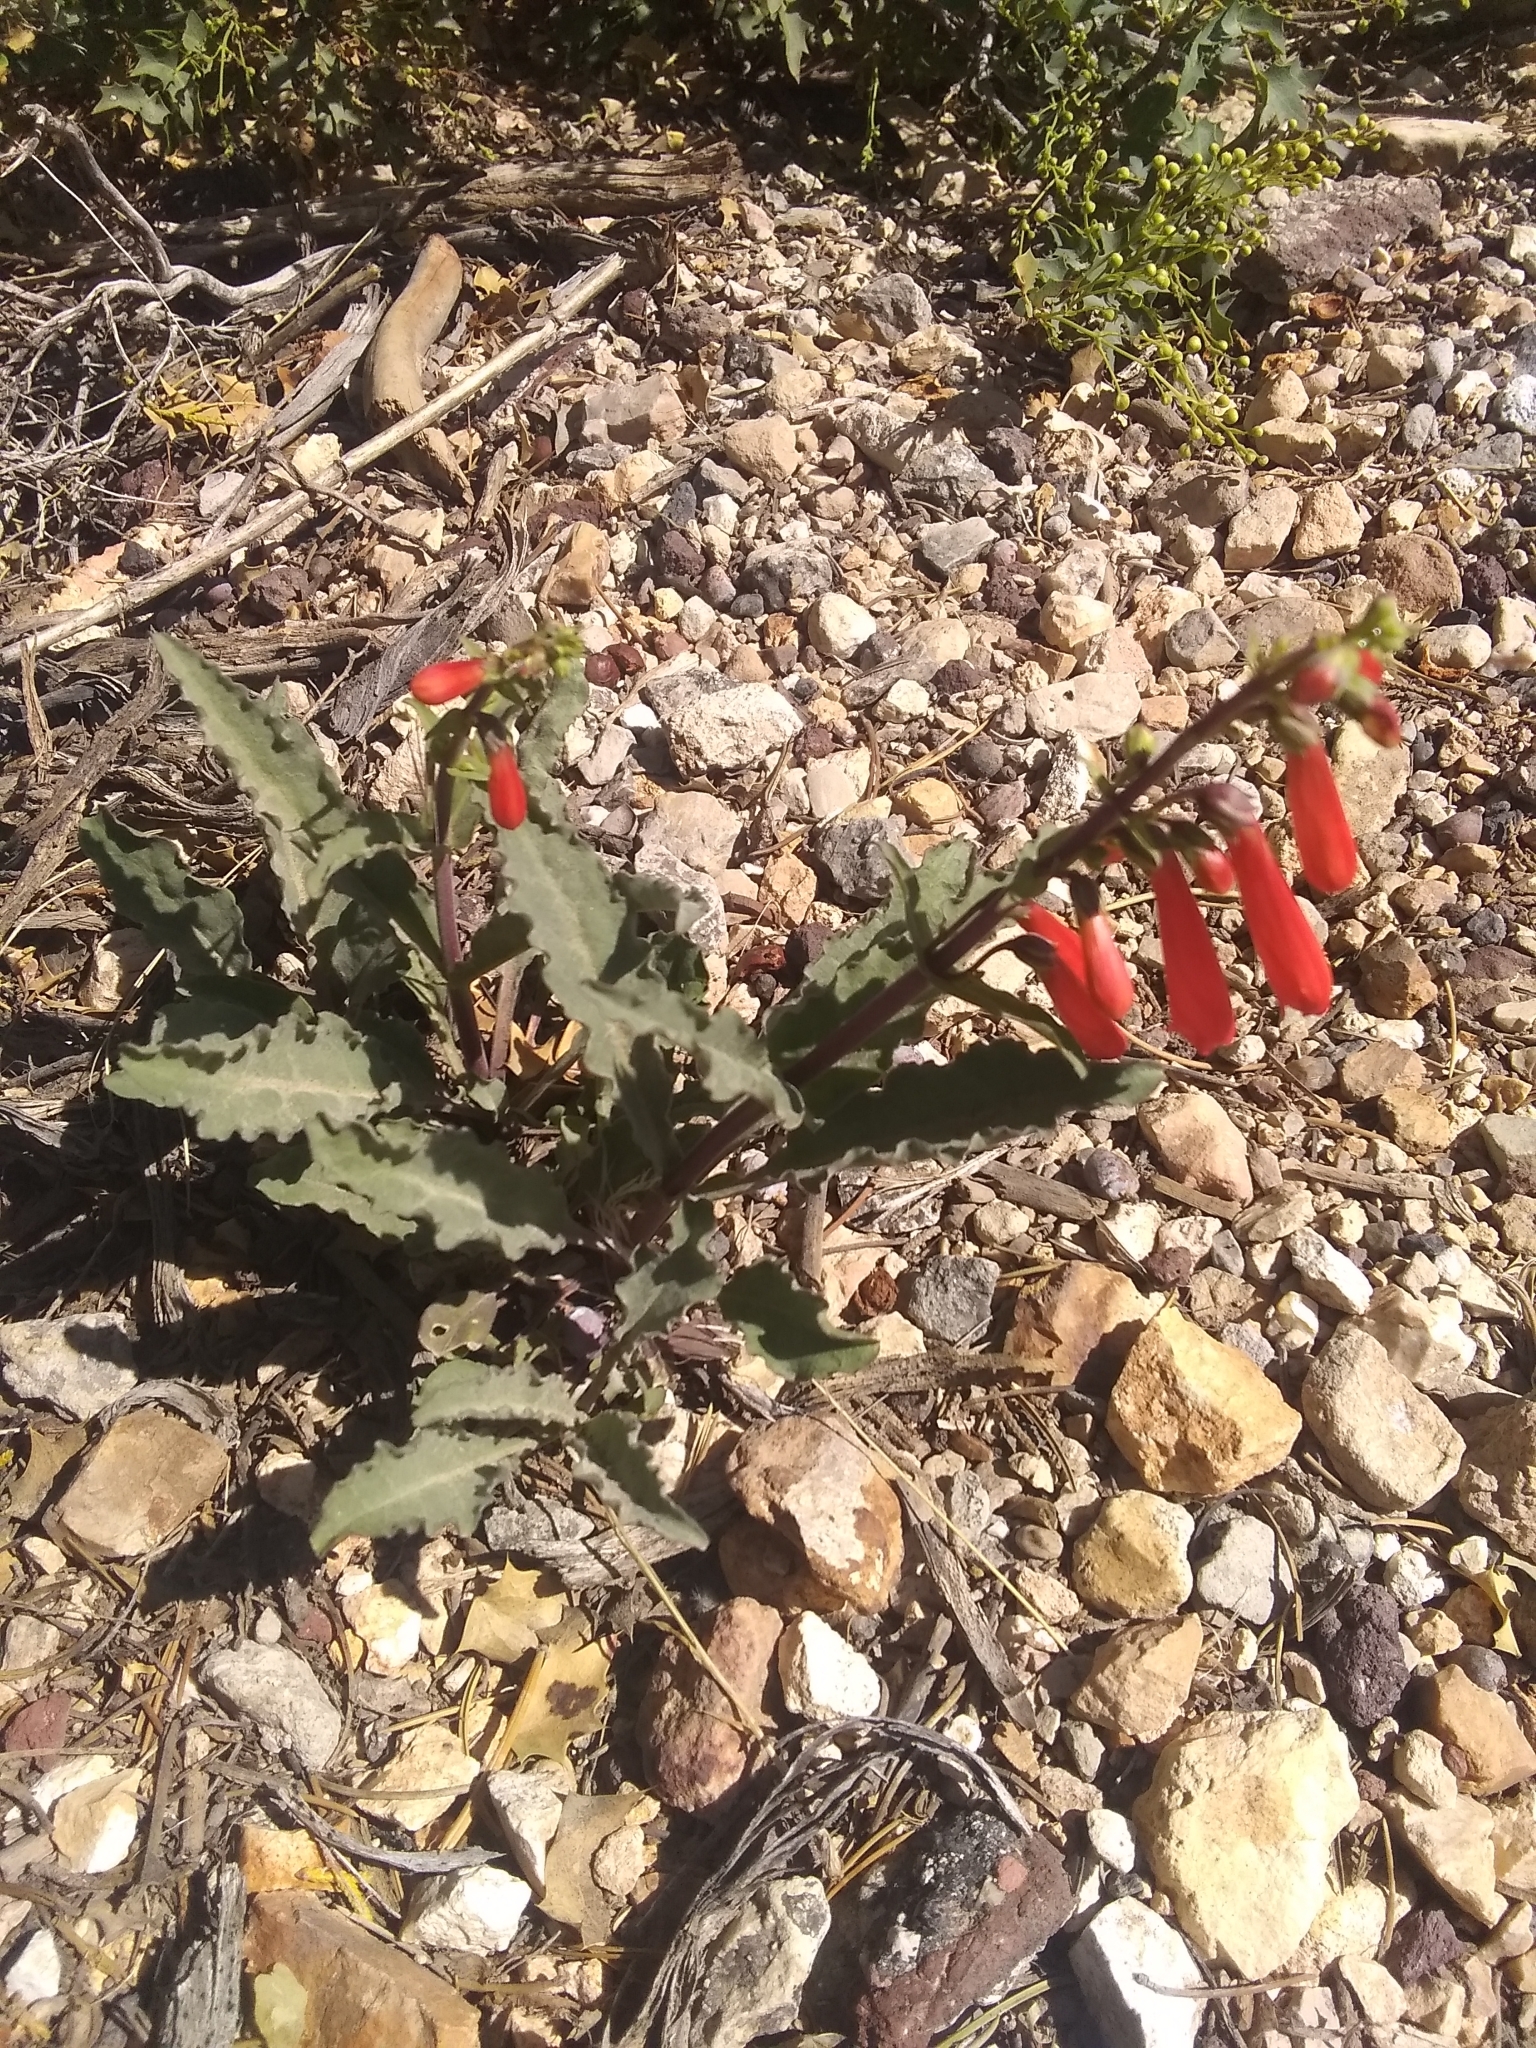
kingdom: Plantae
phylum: Tracheophyta
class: Magnoliopsida
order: Lamiales
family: Plantaginaceae
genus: Penstemon
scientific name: Penstemon eatonii
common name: Eaton's penstemon
